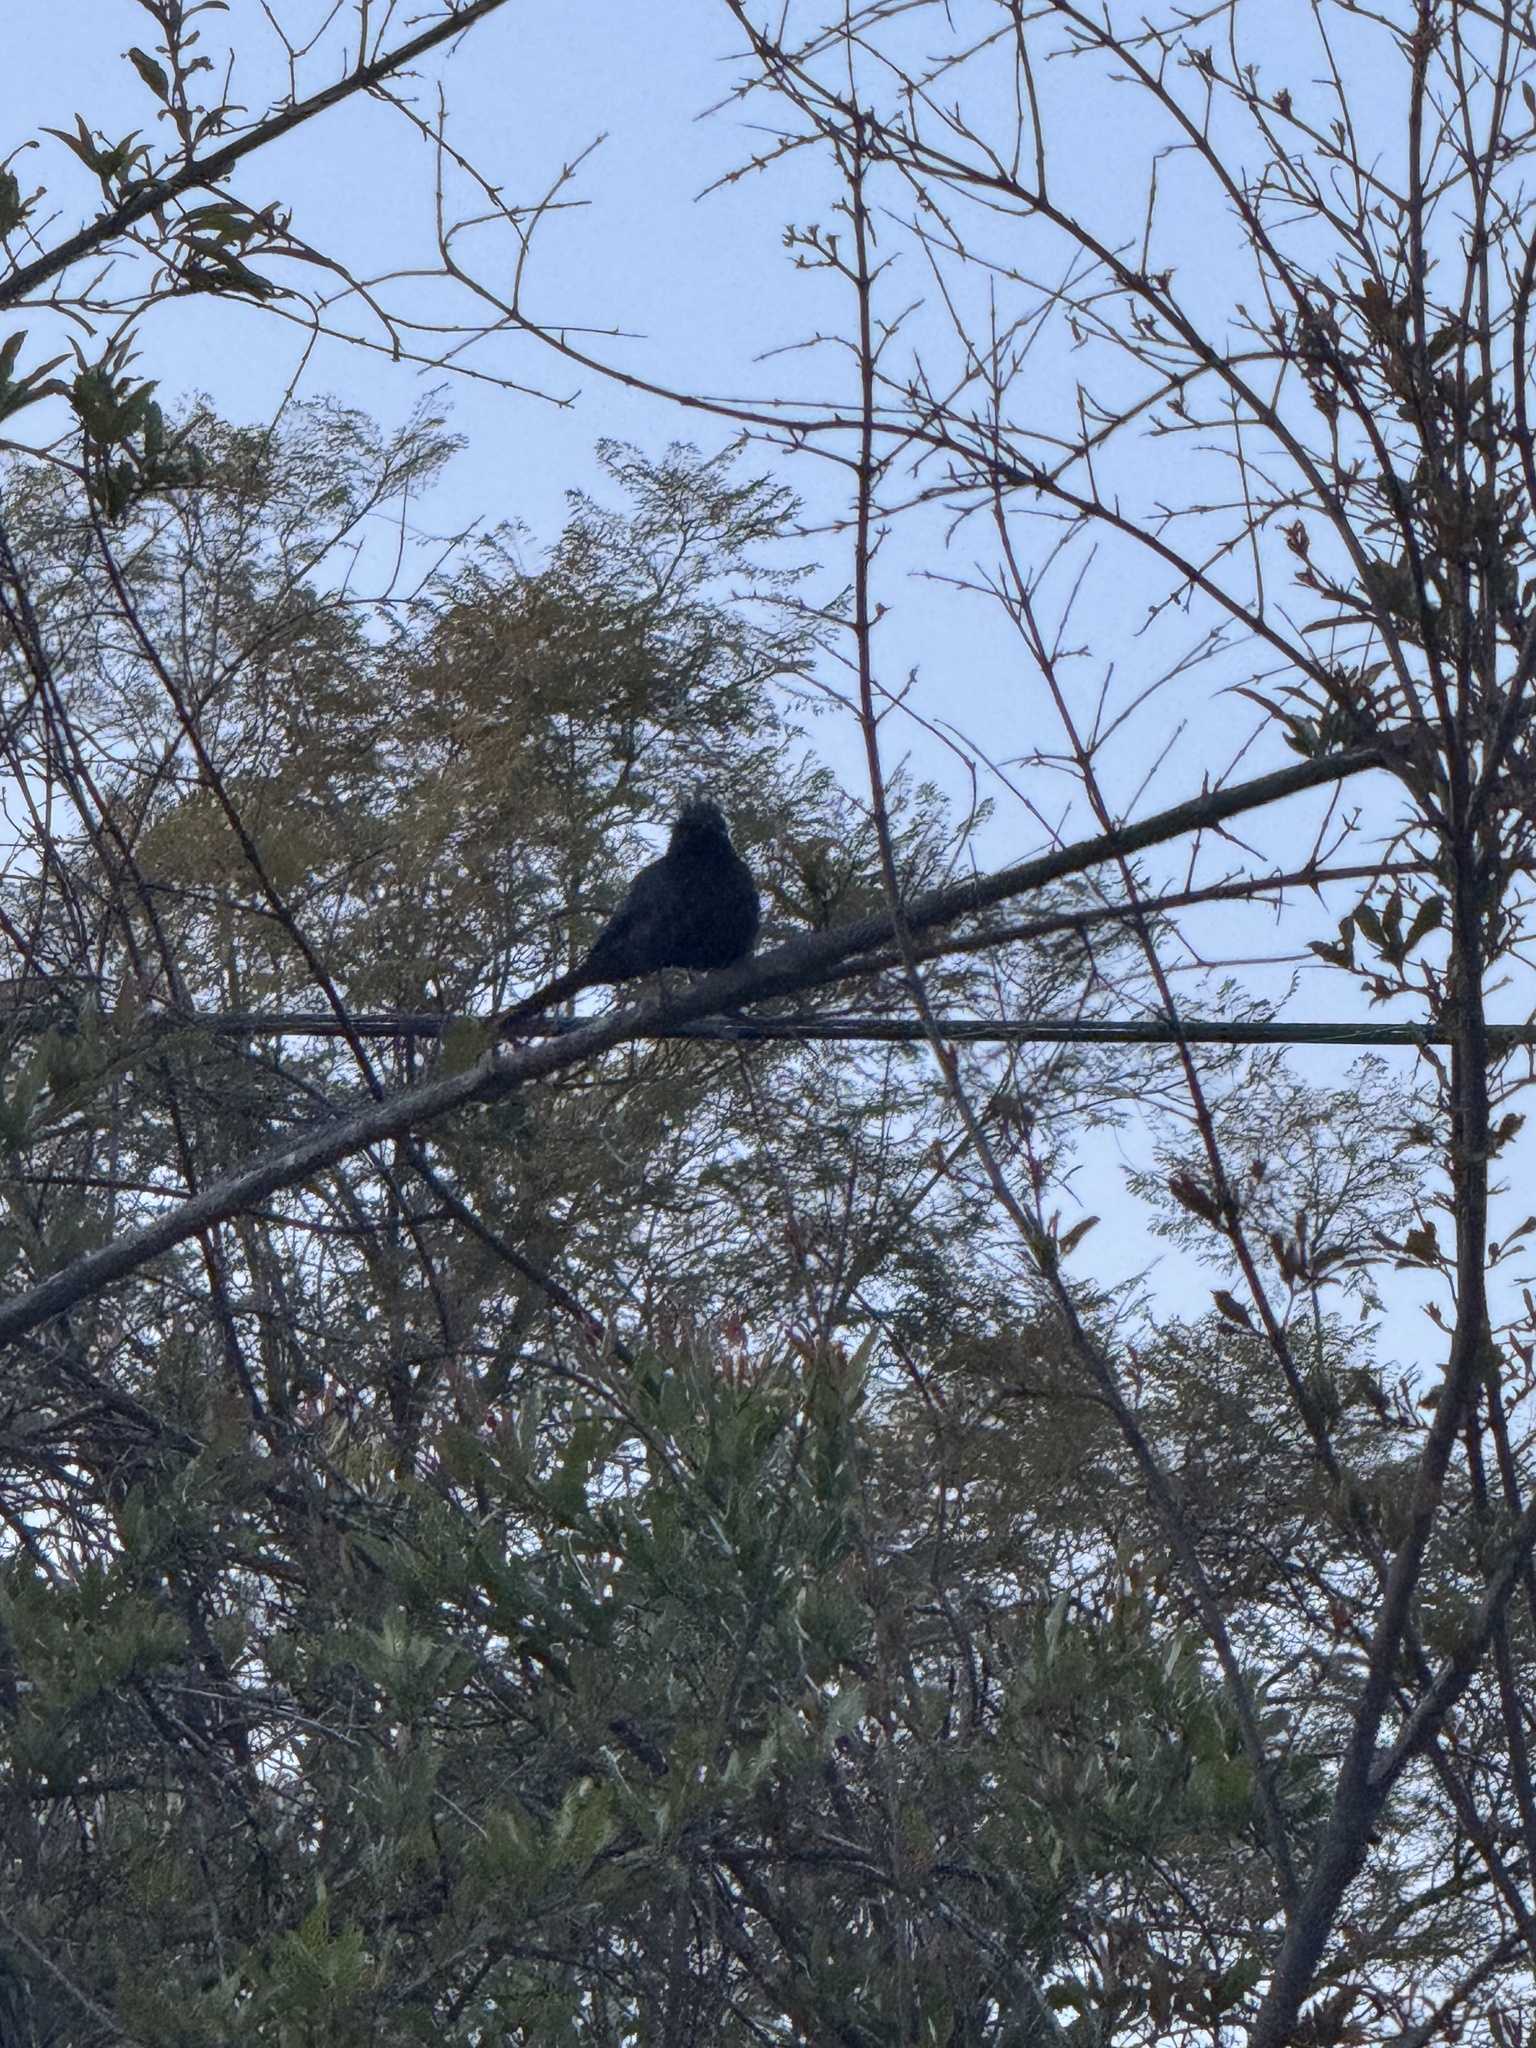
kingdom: Animalia
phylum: Chordata
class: Aves
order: Passeriformes
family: Ptilogonatidae
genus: Phainopepla
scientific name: Phainopepla nitens
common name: Phainopepla
